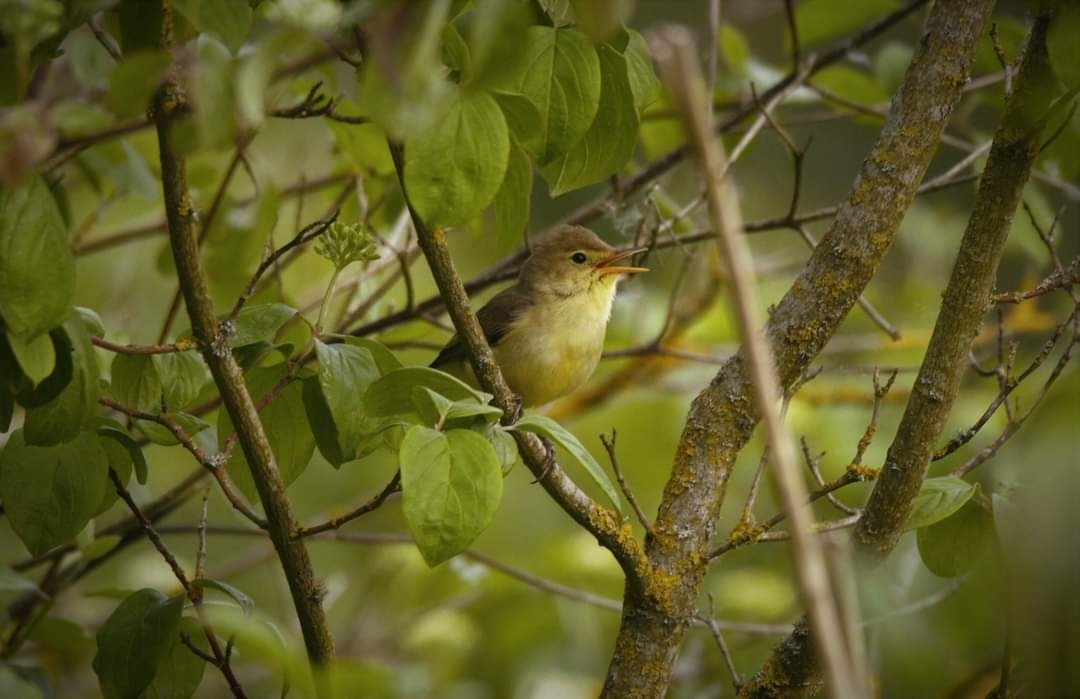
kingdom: Animalia
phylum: Chordata
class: Aves
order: Passeriformes
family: Acrocephalidae
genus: Hippolais
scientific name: Hippolais polyglotta
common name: Melodious warbler
